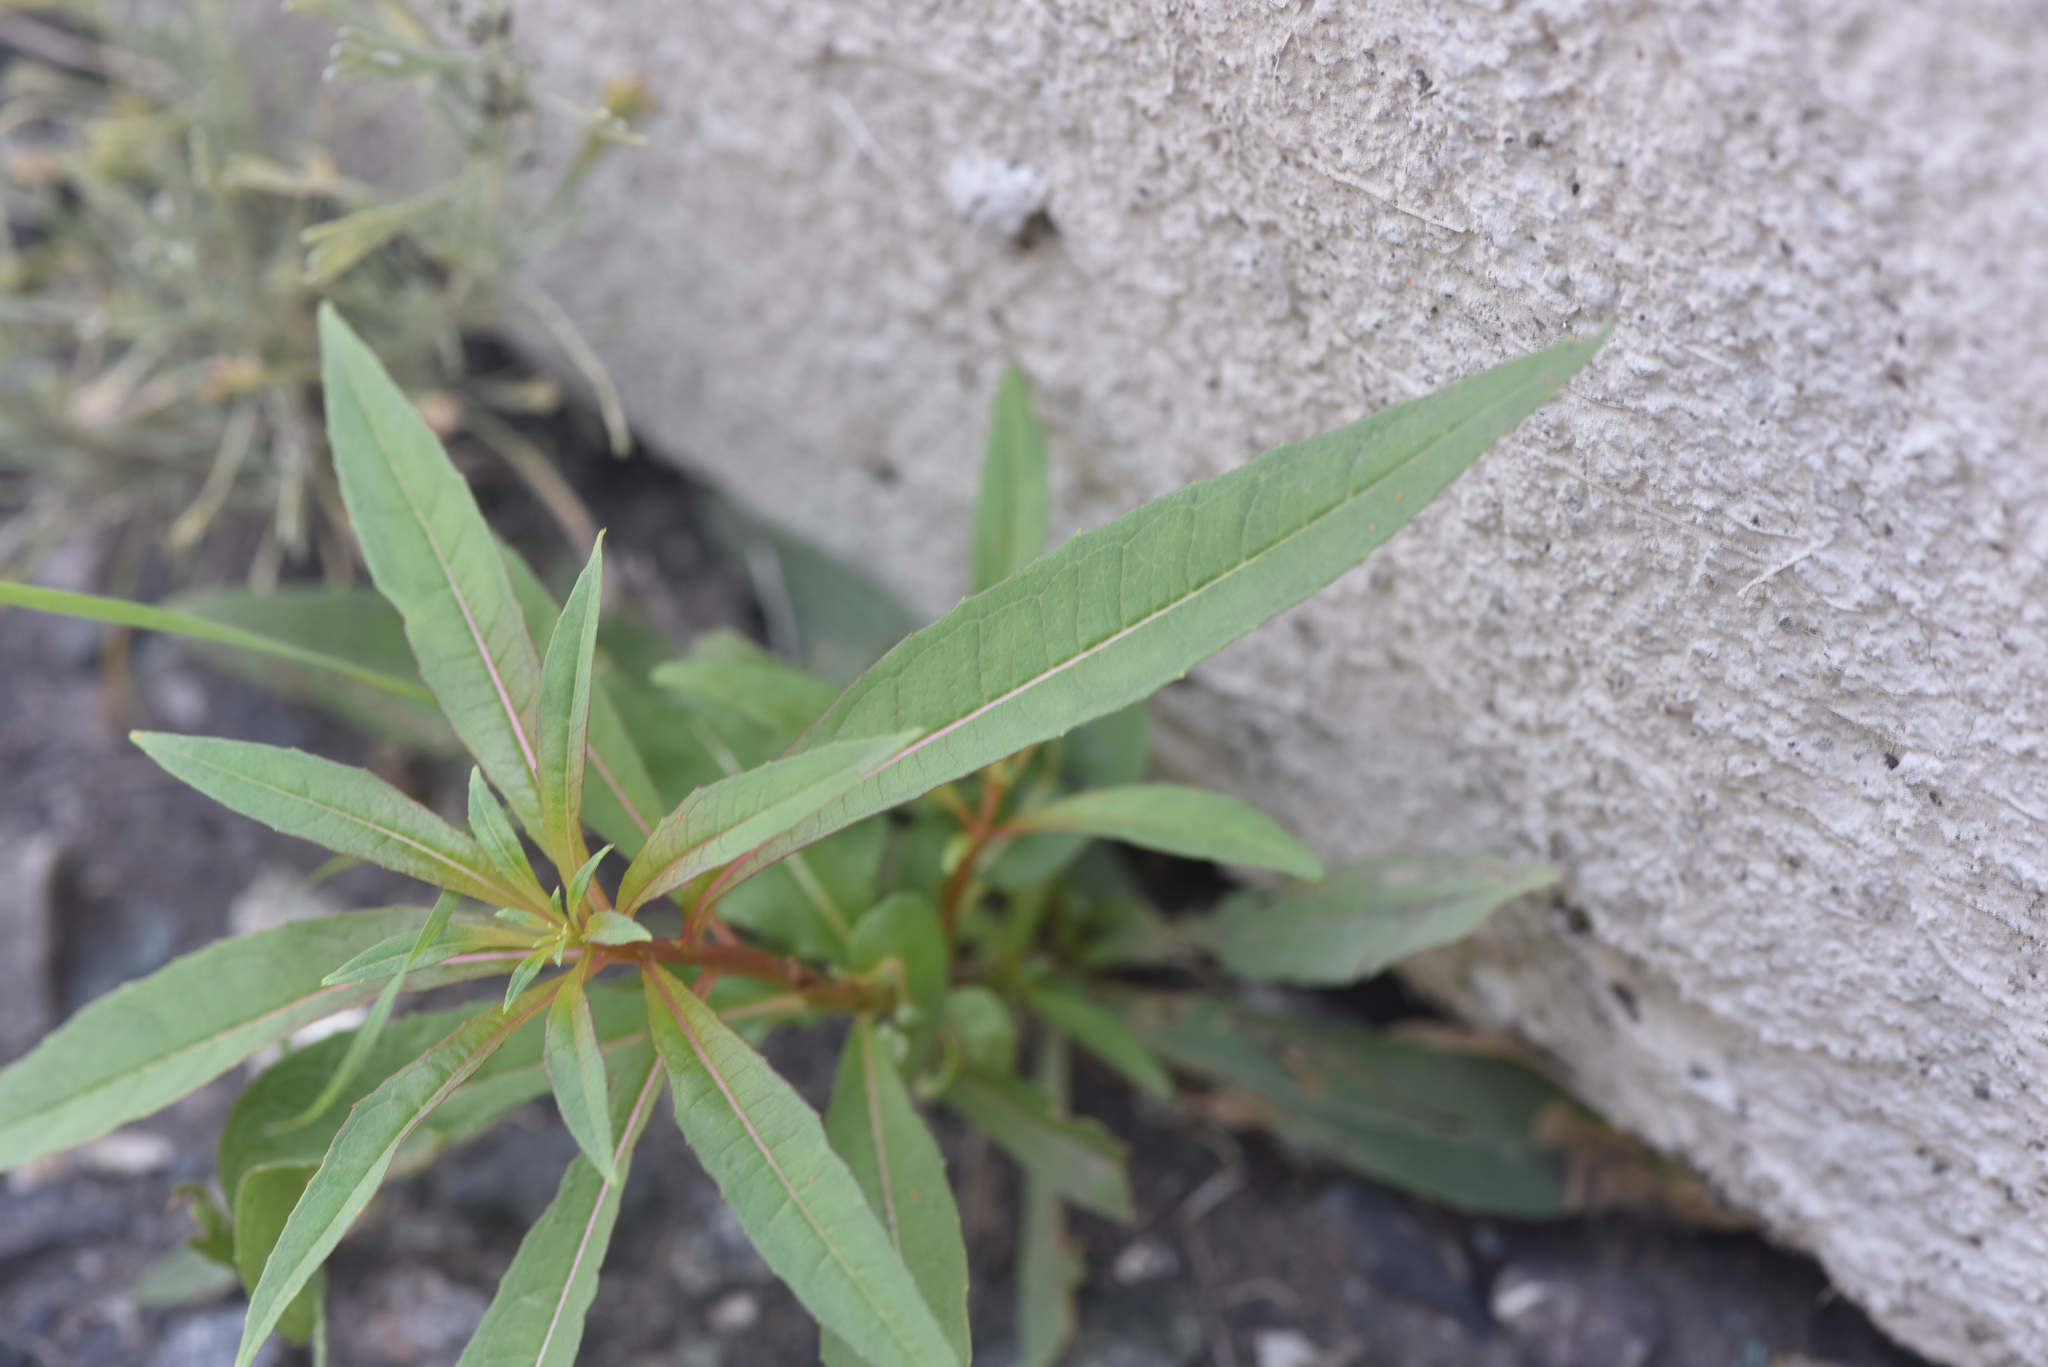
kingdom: Plantae
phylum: Tracheophyta
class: Magnoliopsida
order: Myrtales
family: Onagraceae
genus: Chamaenerion
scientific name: Chamaenerion angustifolium
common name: Fireweed
